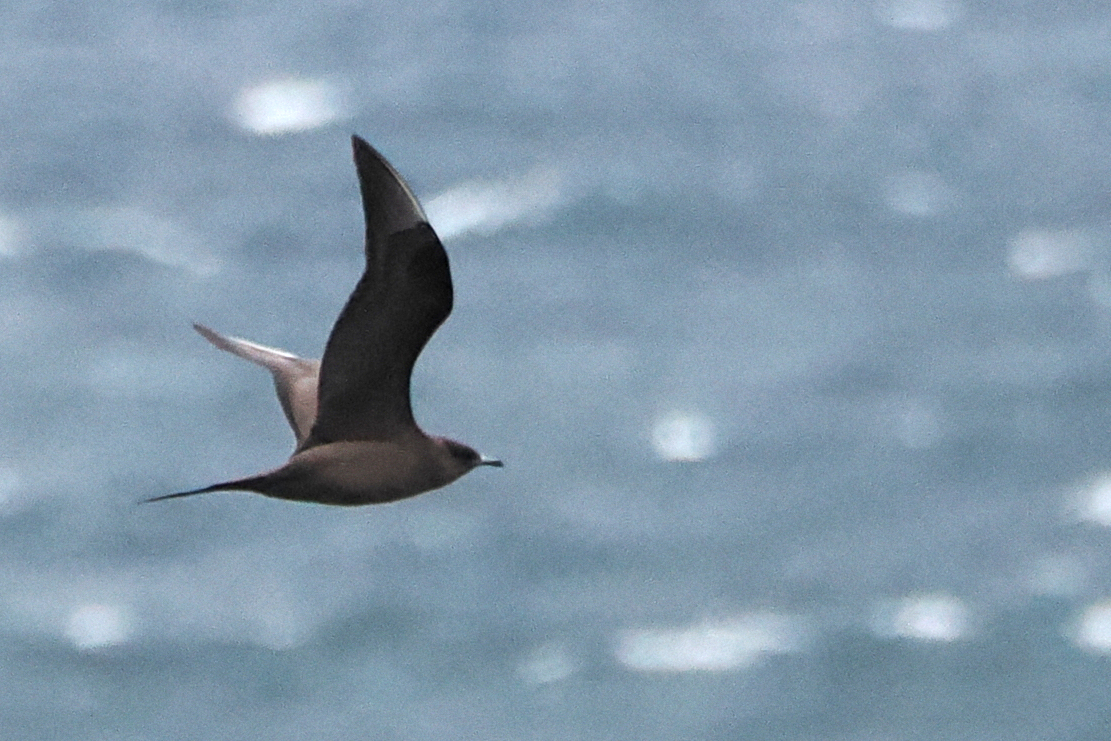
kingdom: Animalia
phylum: Chordata
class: Aves
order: Charadriiformes
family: Stercorariidae
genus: Stercorarius
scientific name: Stercorarius parasiticus
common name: Parasitic jaeger
